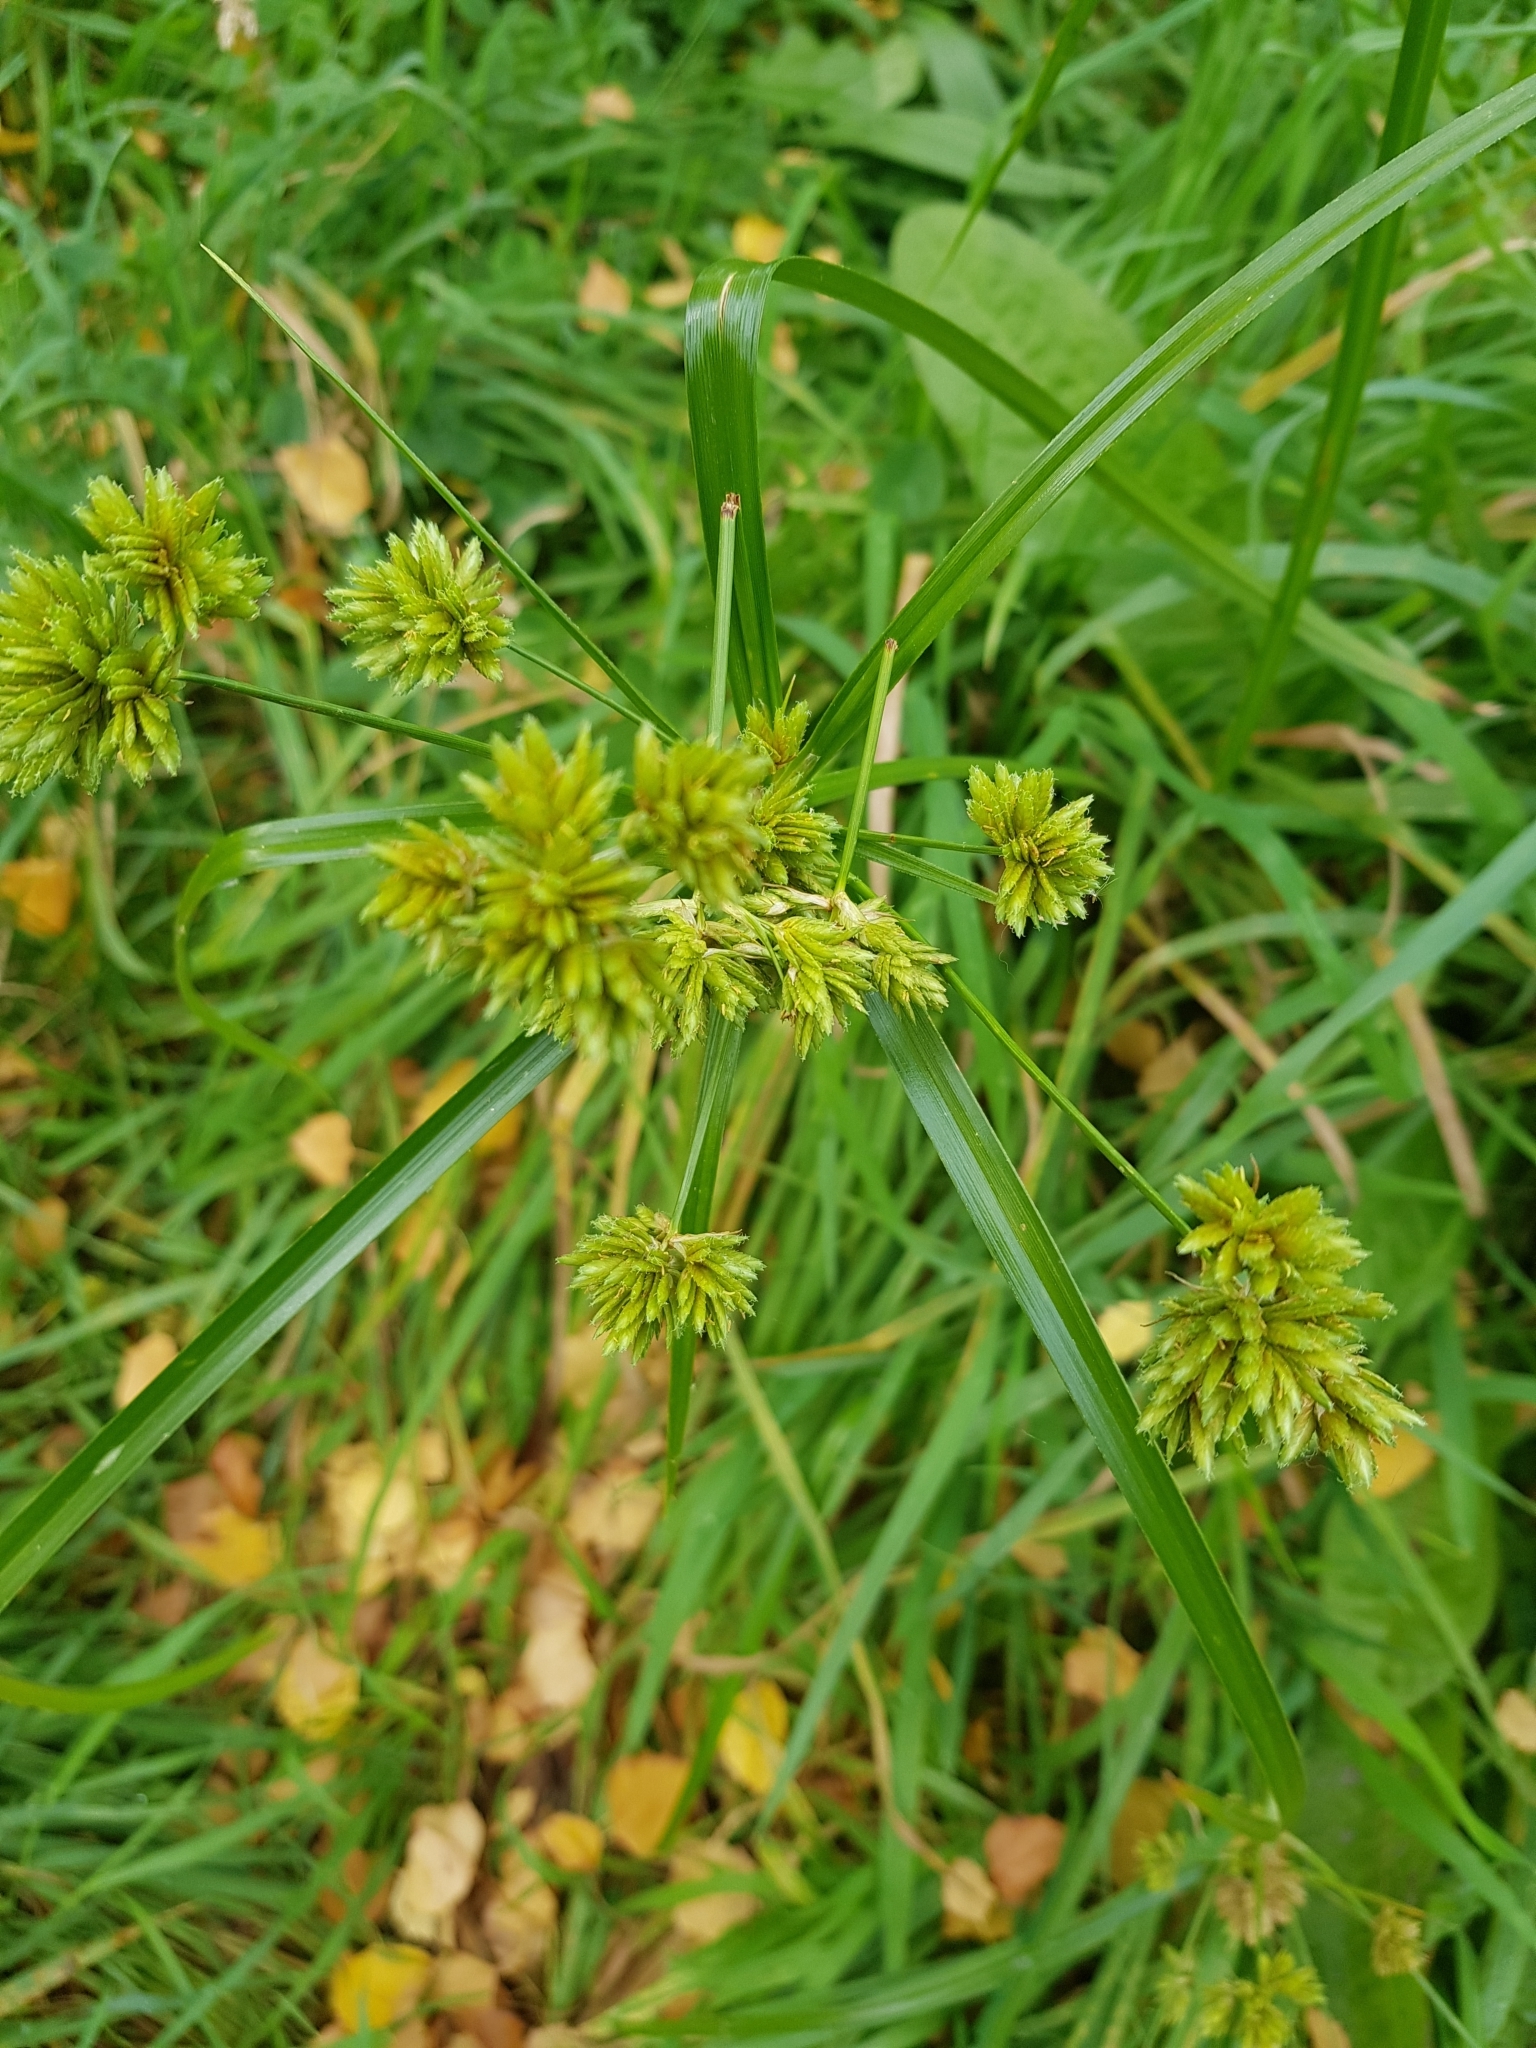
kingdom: Plantae
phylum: Tracheophyta
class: Liliopsida
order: Poales
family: Cyperaceae
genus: Cyperus
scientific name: Cyperus eragrostis
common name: Tall flatsedge
